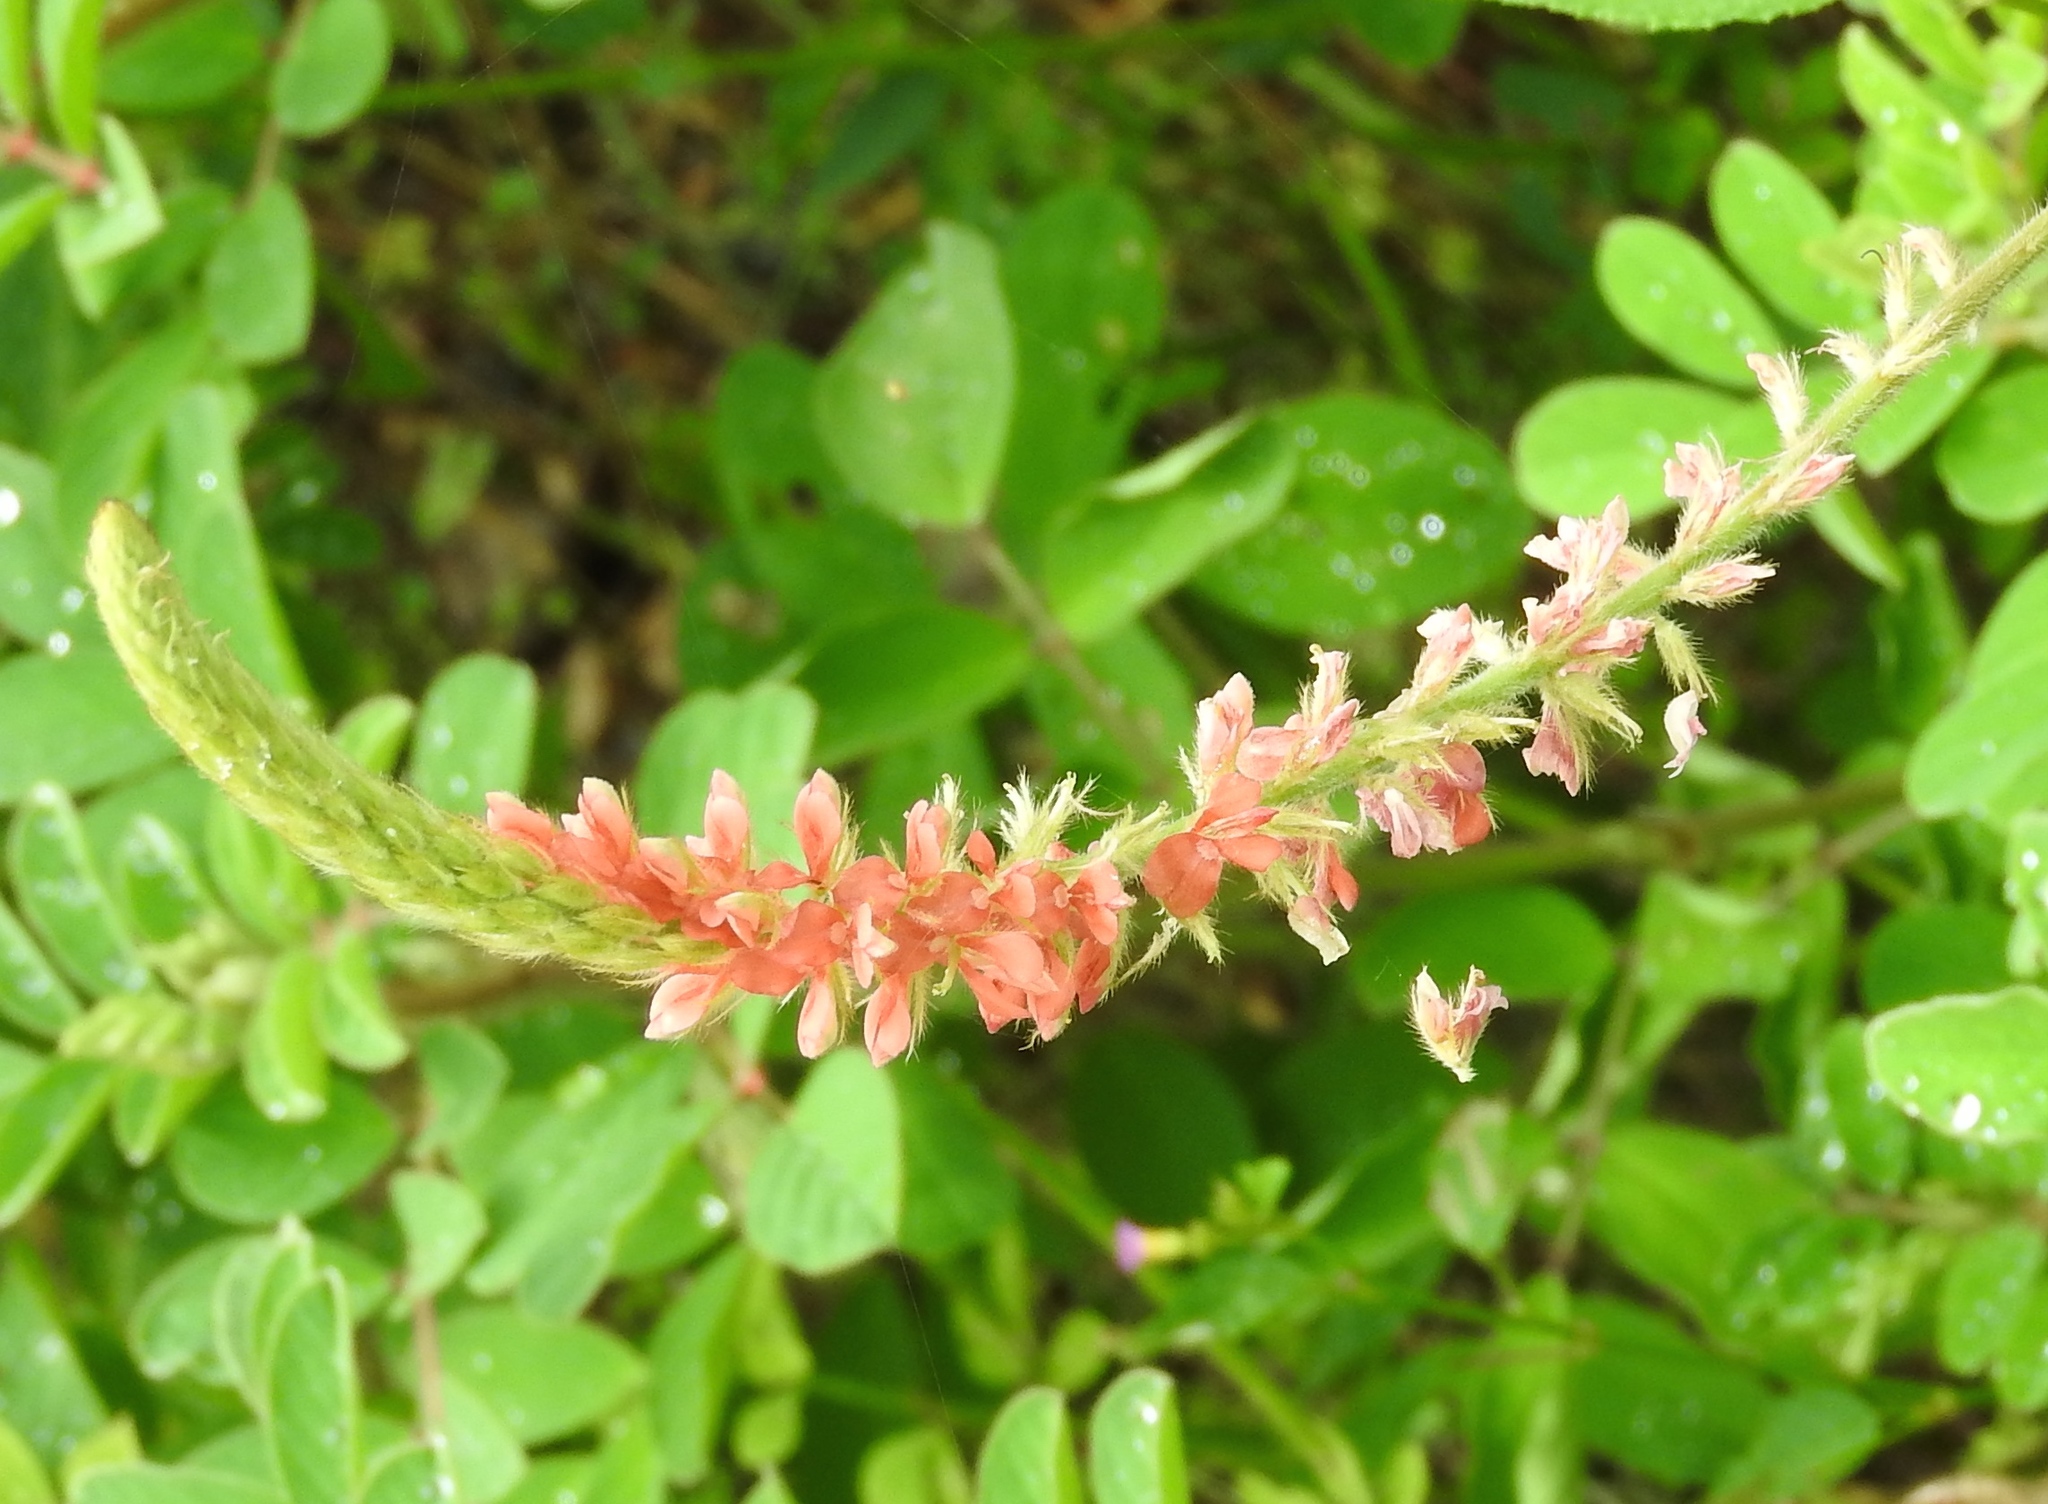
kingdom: Plantae
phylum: Tracheophyta
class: Magnoliopsida
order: Fabales
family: Fabaceae
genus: Indigofera
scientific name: Indigofera
